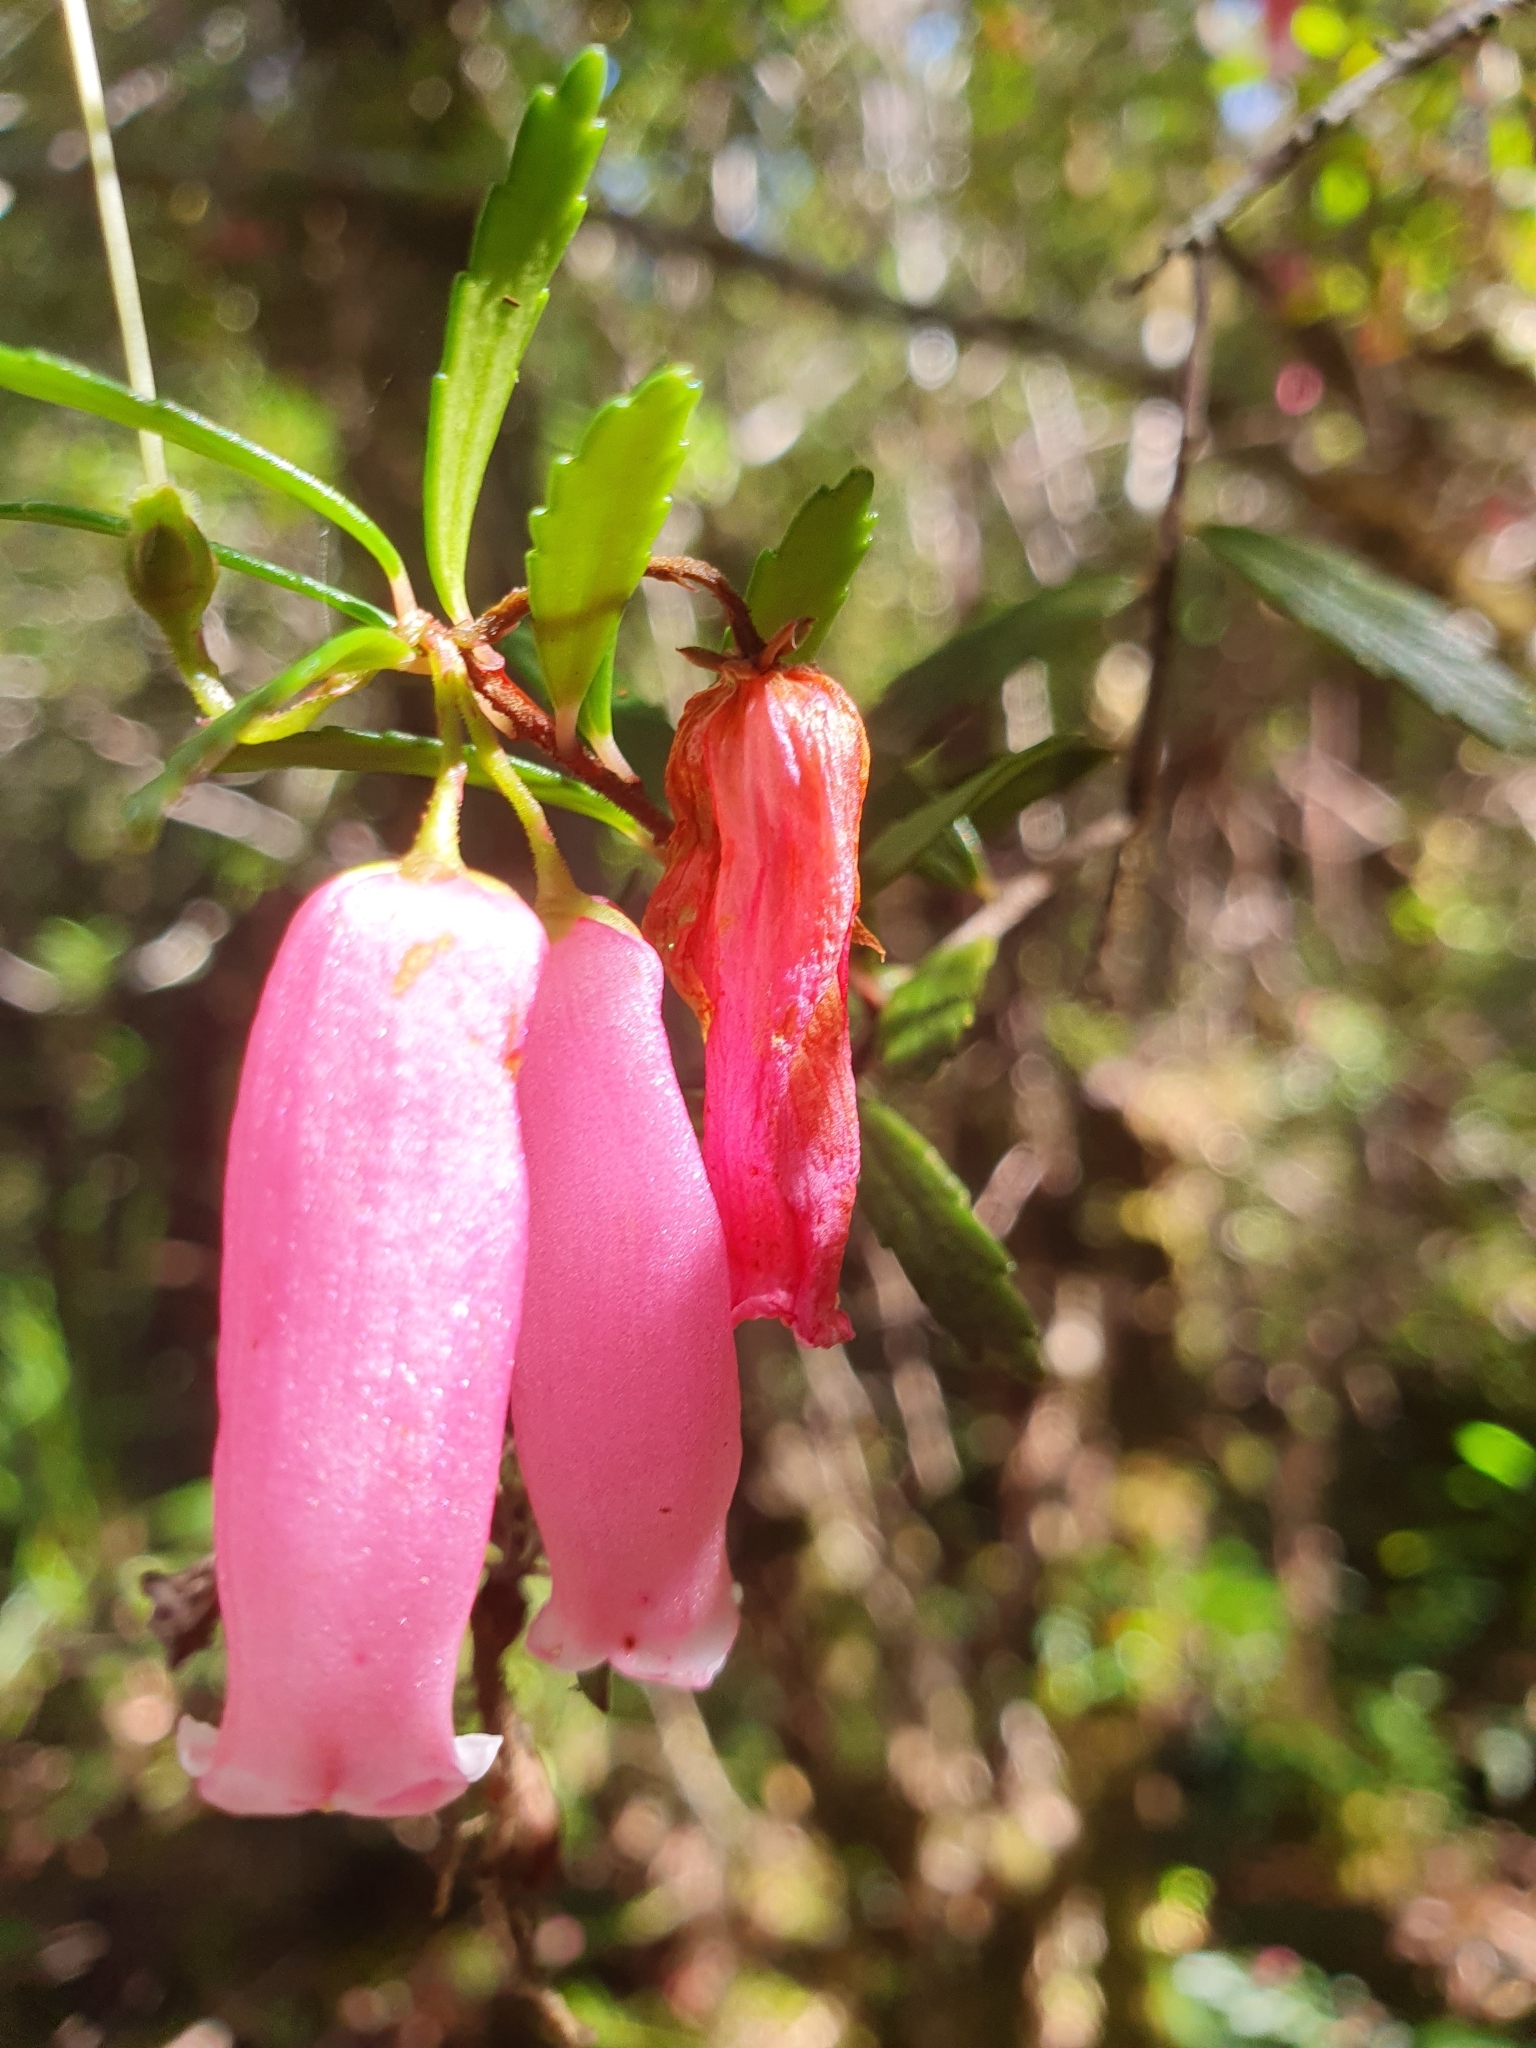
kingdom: Plantae
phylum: Tracheophyta
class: Magnoliopsida
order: Ericales
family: Ericaceae
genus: Prionotes
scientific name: Prionotes cerinthoides
